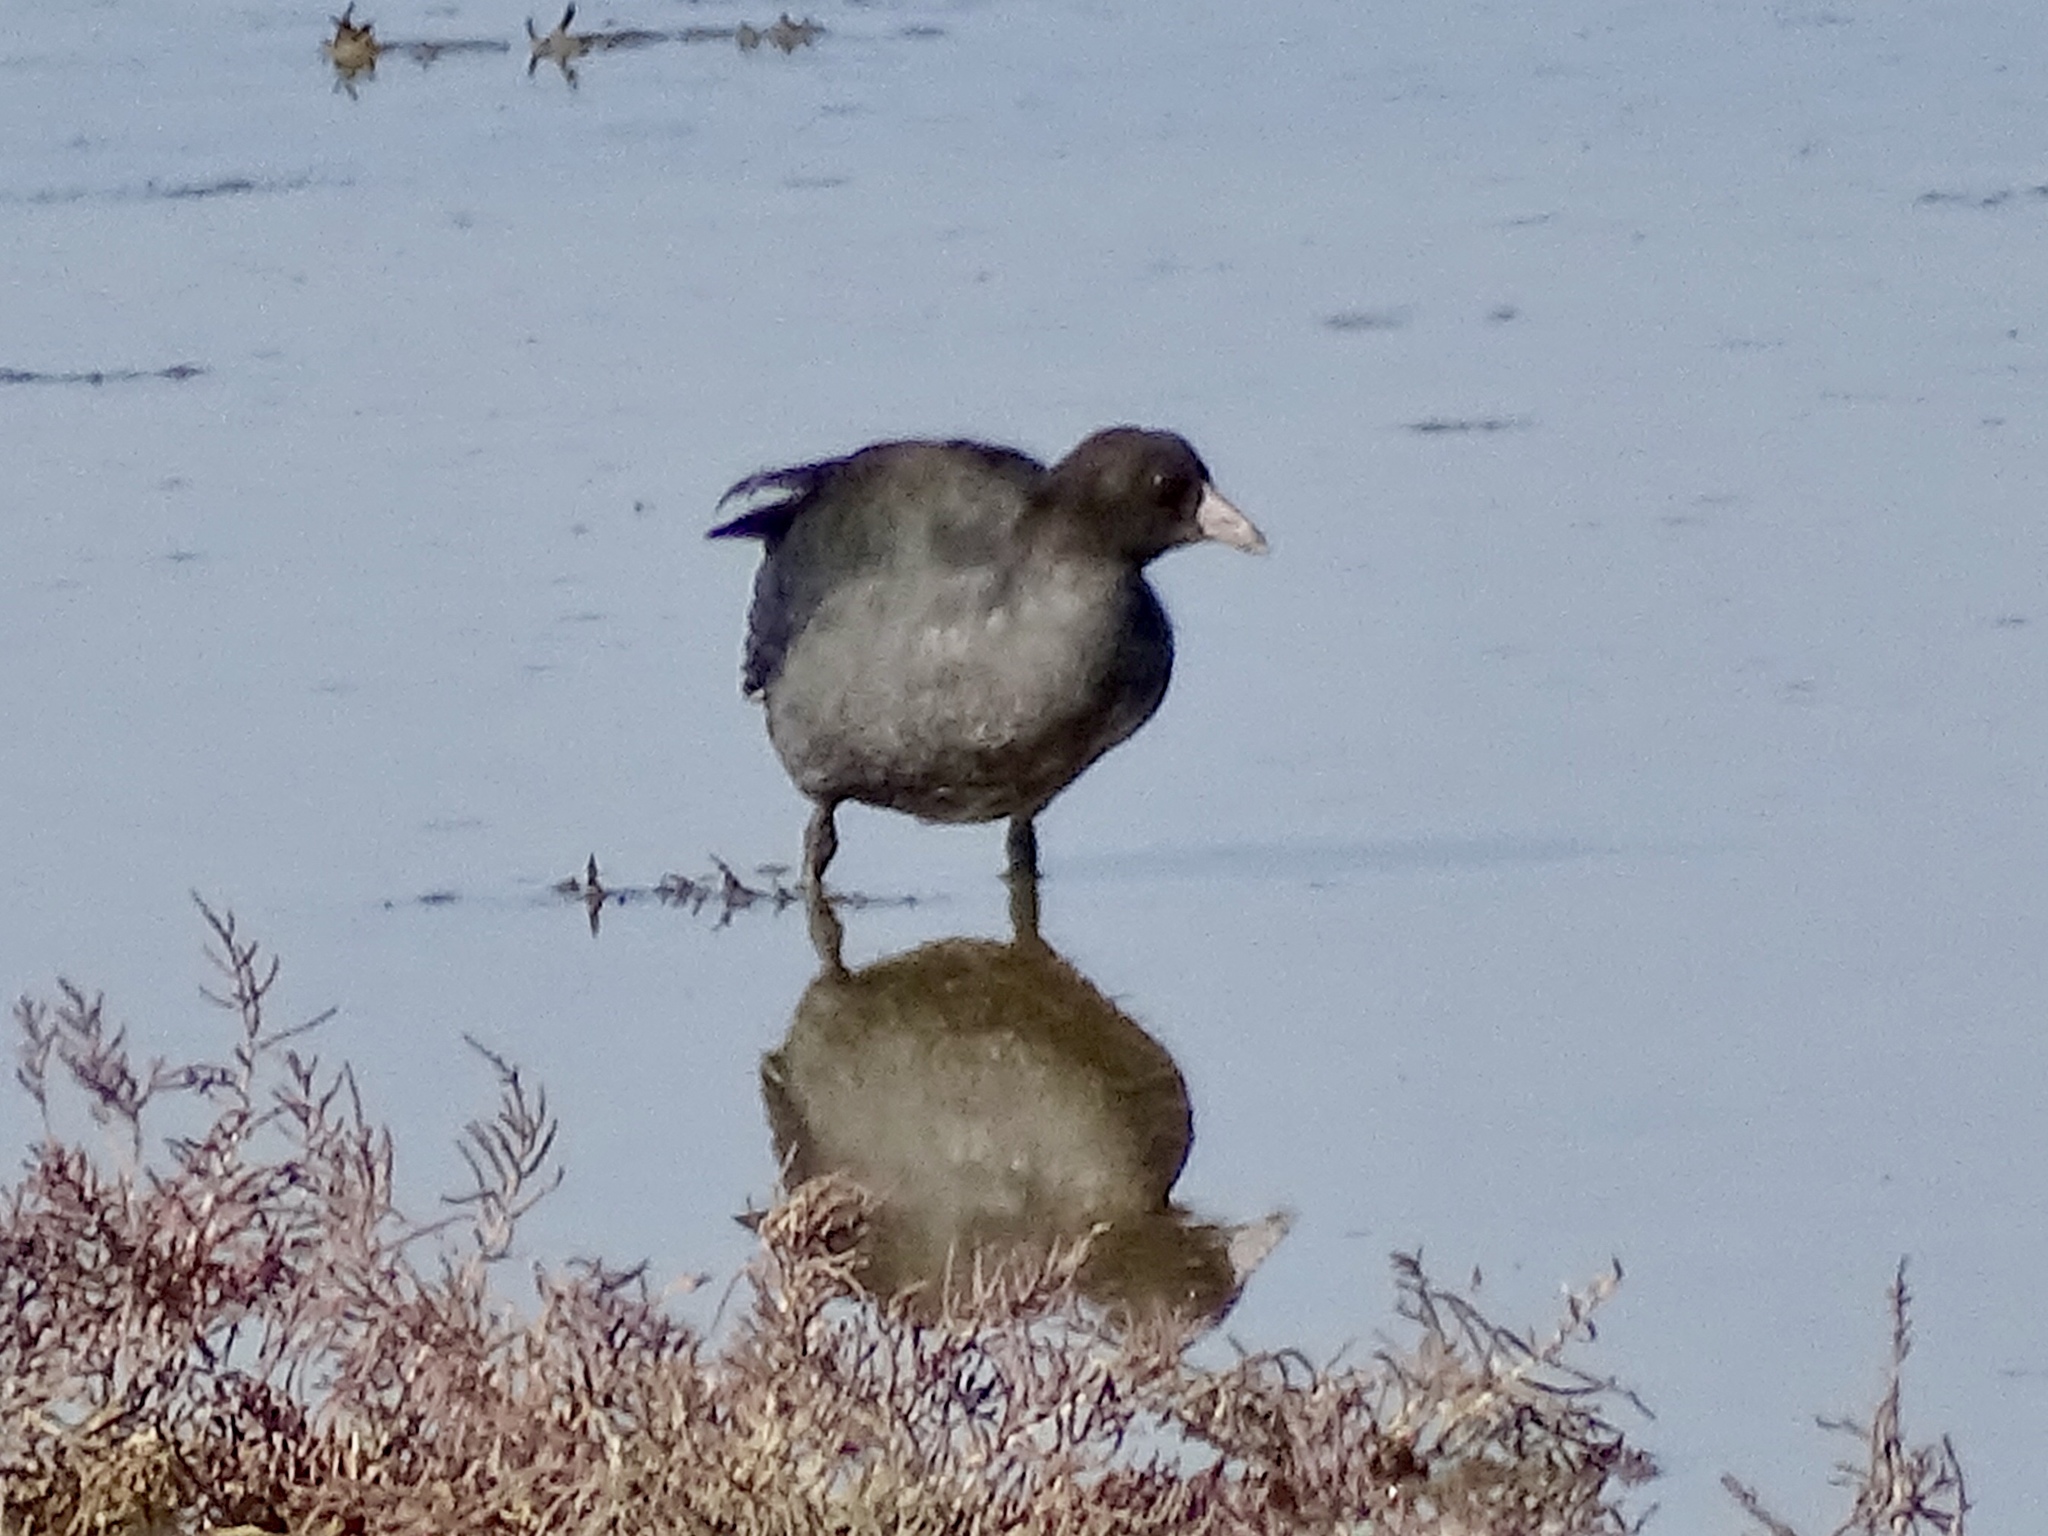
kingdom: Animalia
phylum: Chordata
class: Aves
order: Gruiformes
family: Rallidae
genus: Fulica
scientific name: Fulica americana
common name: American coot
